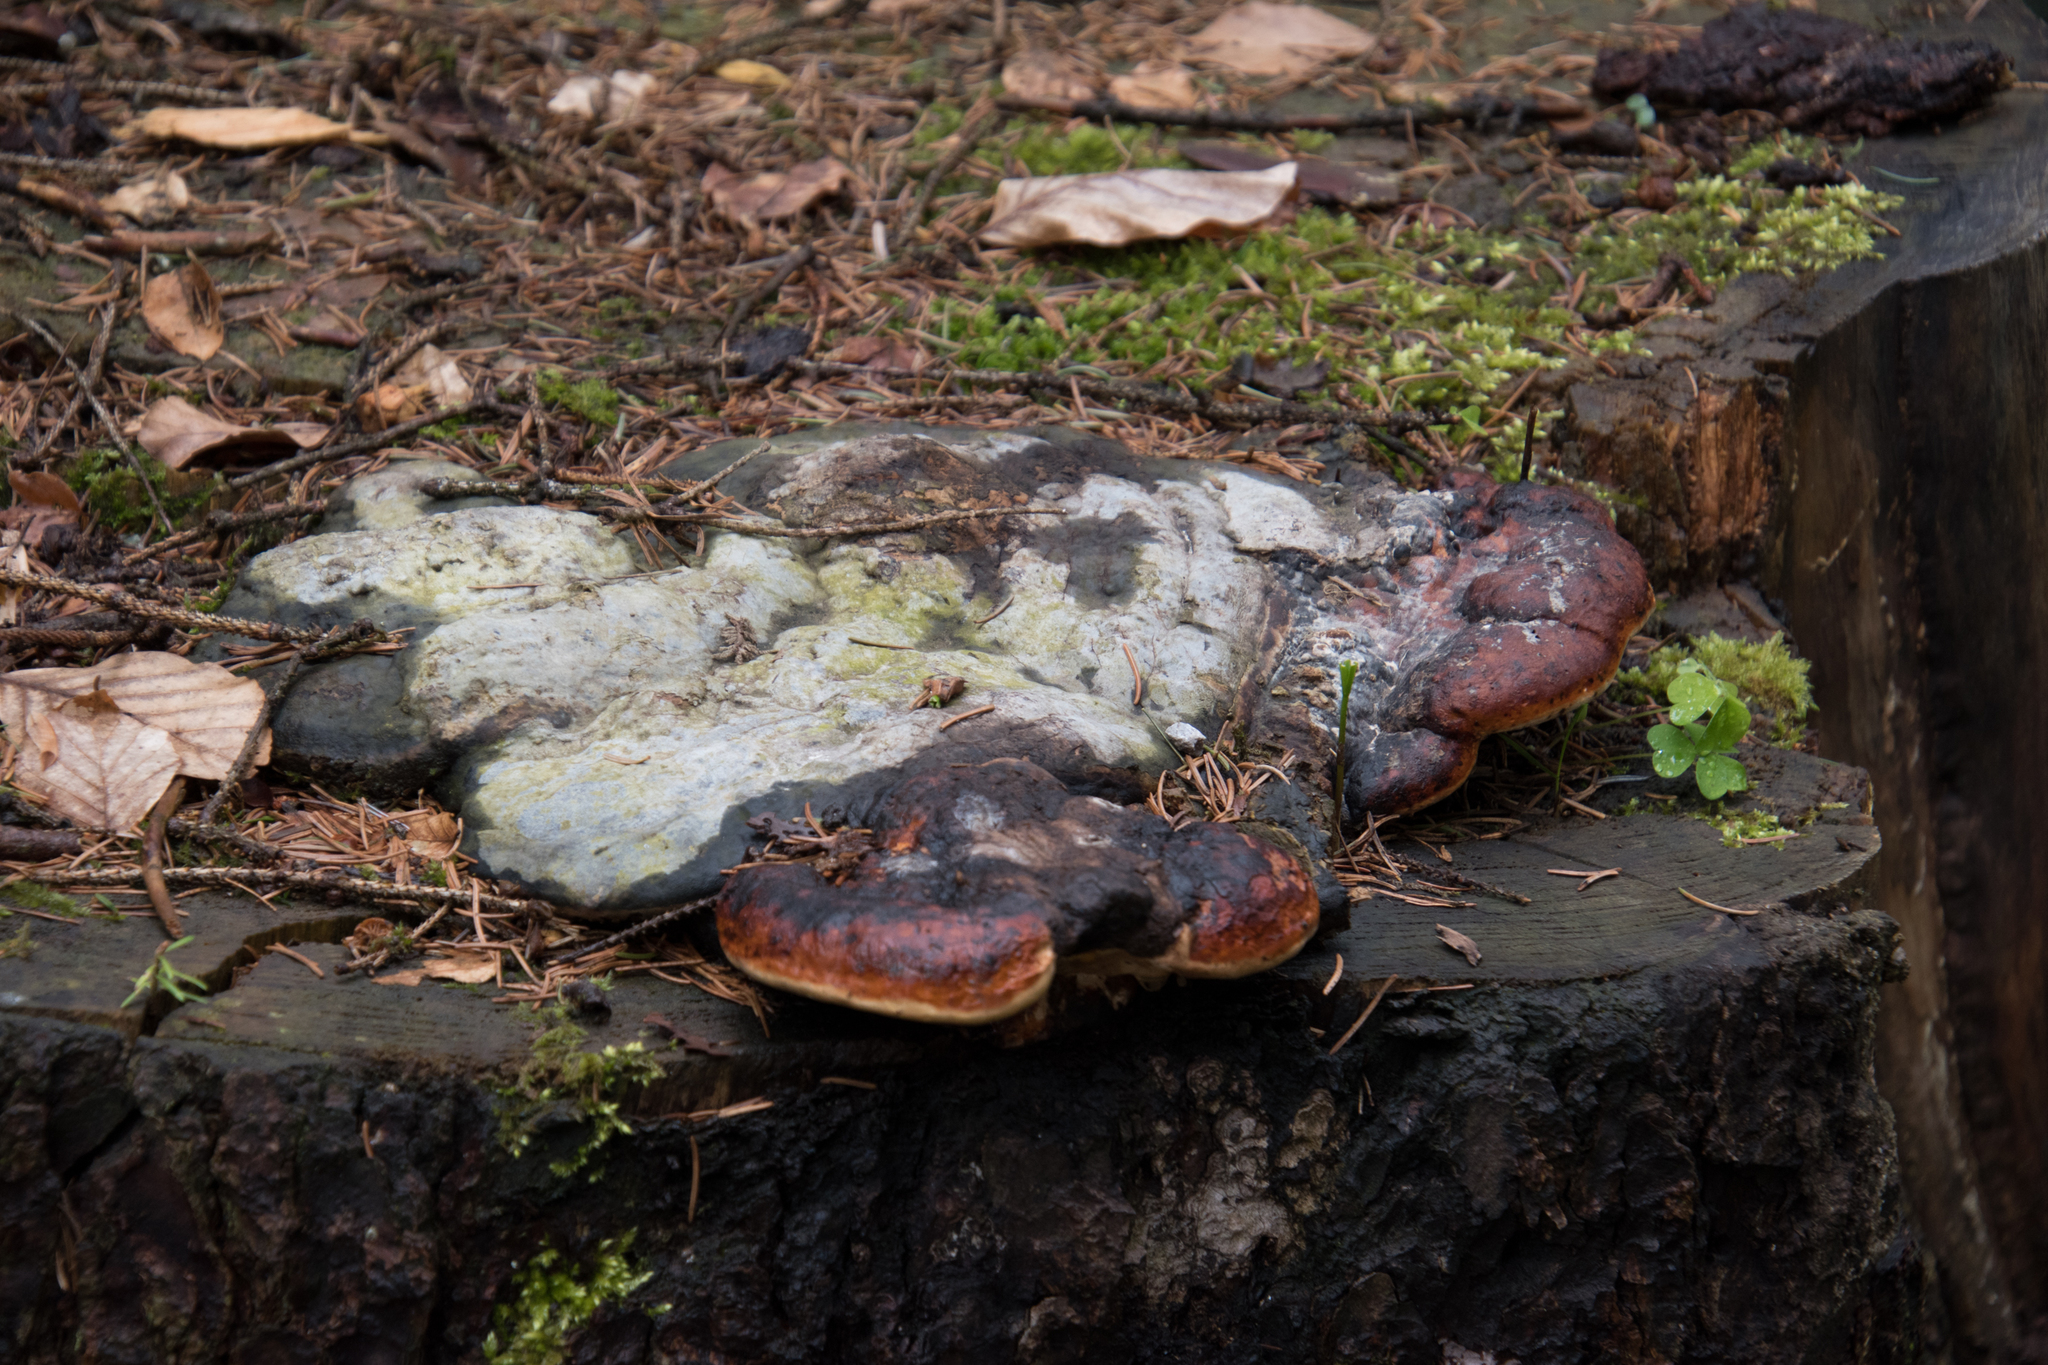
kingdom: Fungi
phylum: Basidiomycota
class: Agaricomycetes
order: Polyporales
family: Fomitopsidaceae
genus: Fomitopsis
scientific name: Fomitopsis pinicola
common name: Red-belted bracket
